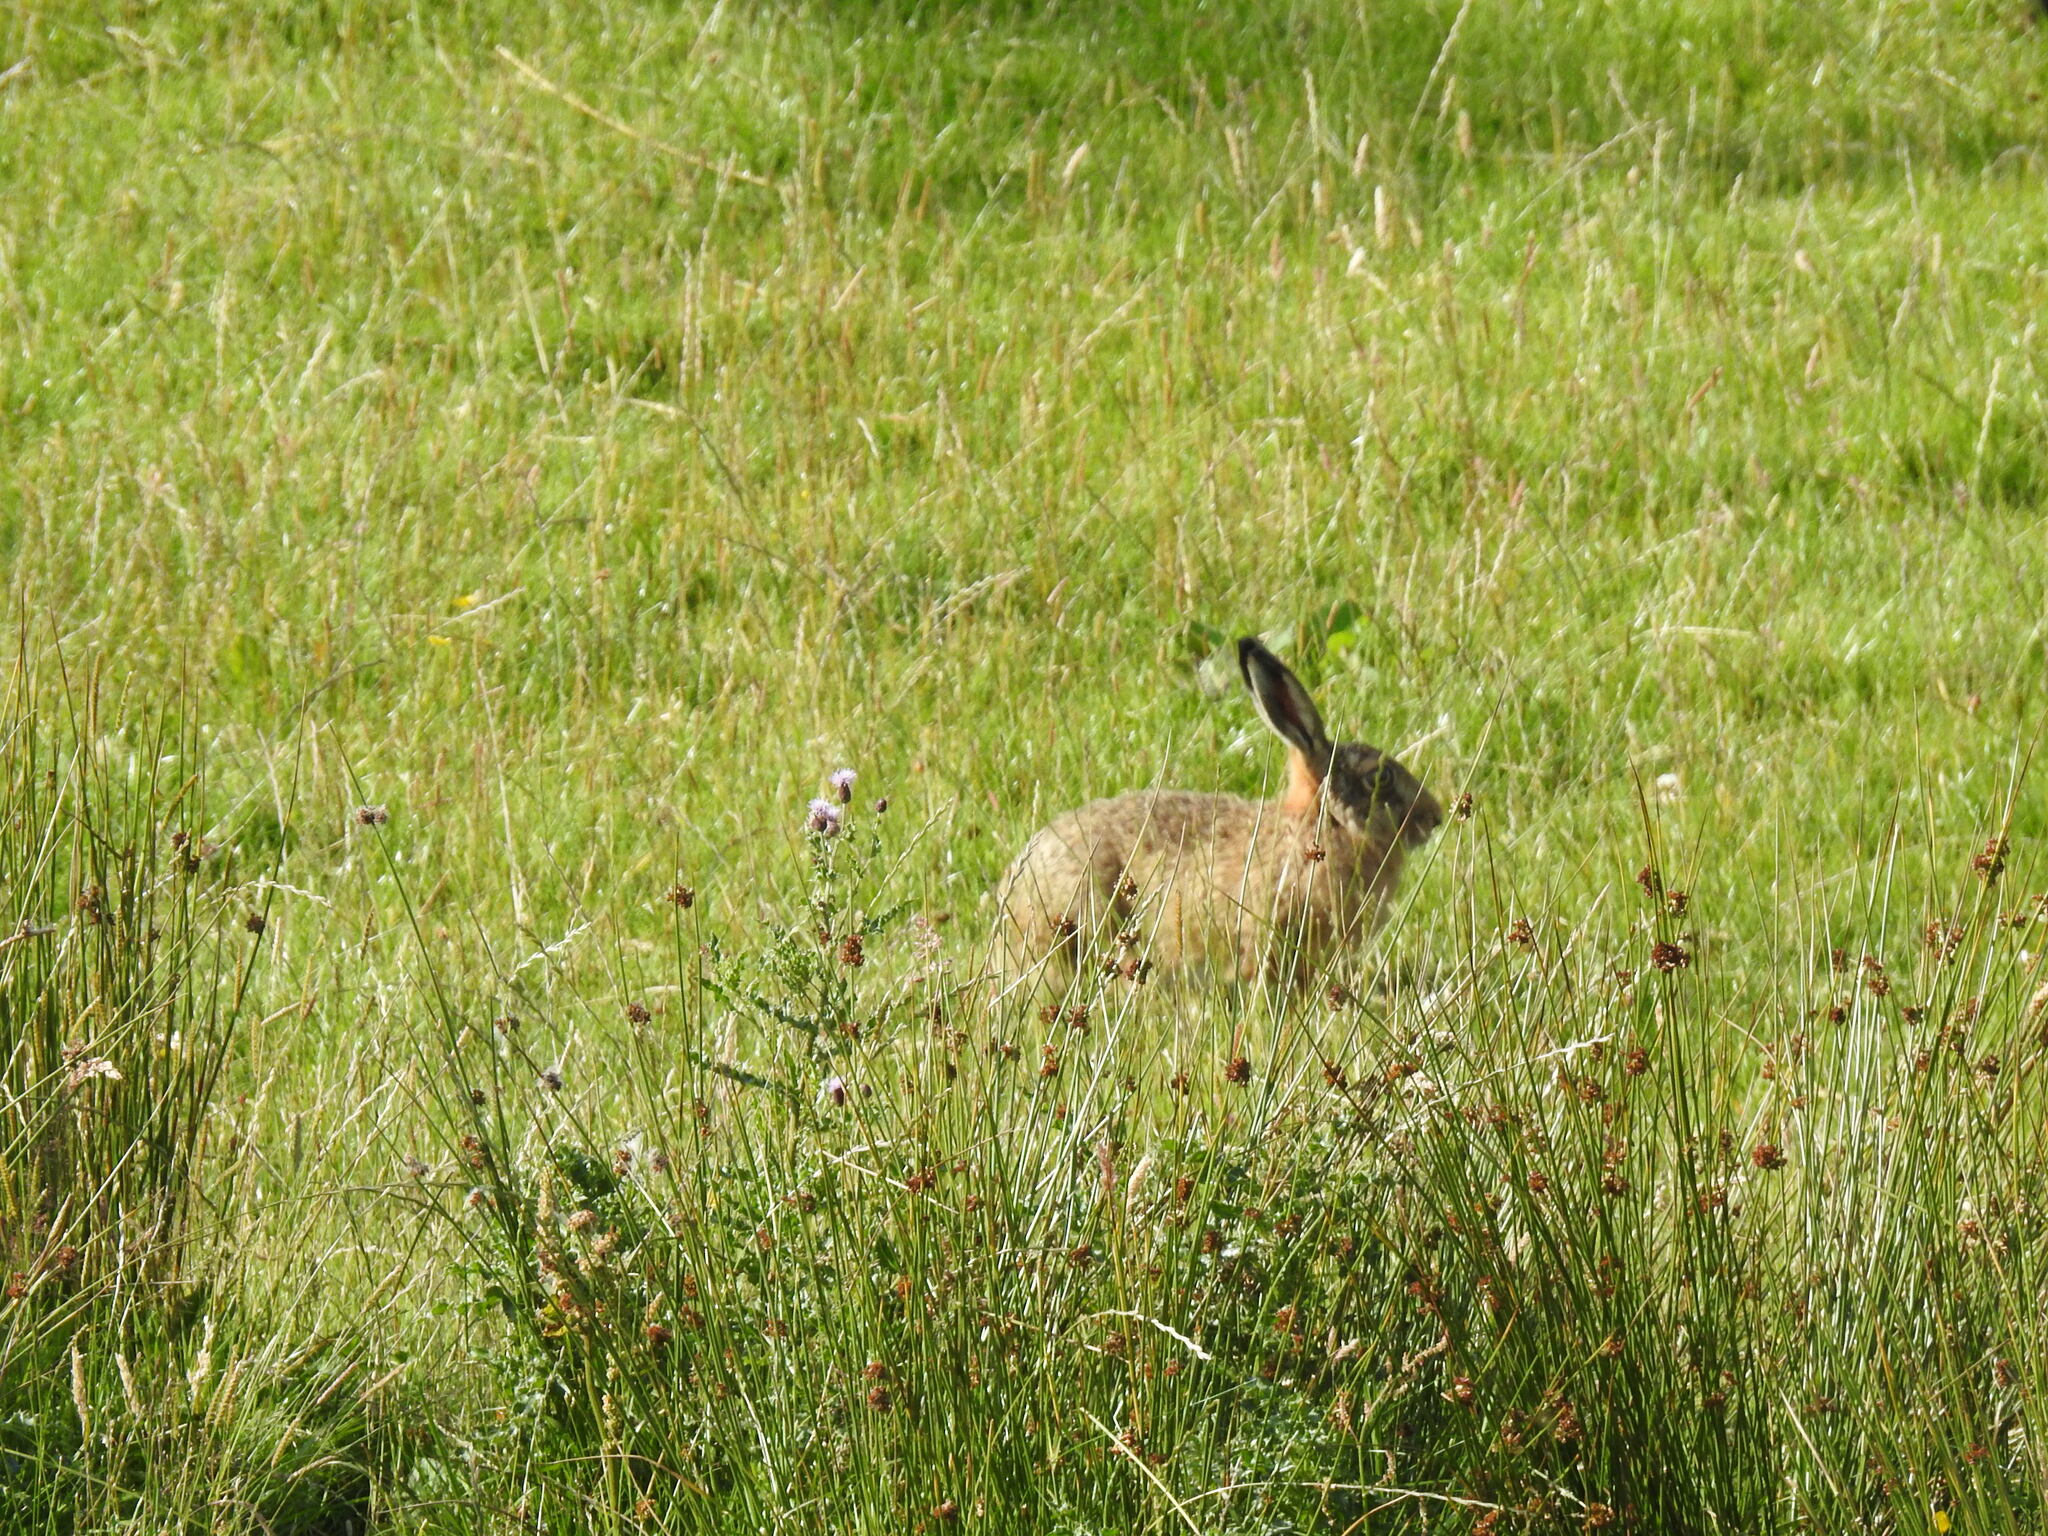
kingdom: Animalia
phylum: Chordata
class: Mammalia
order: Lagomorpha
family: Leporidae
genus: Lepus
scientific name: Lepus europaeus
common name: European hare
